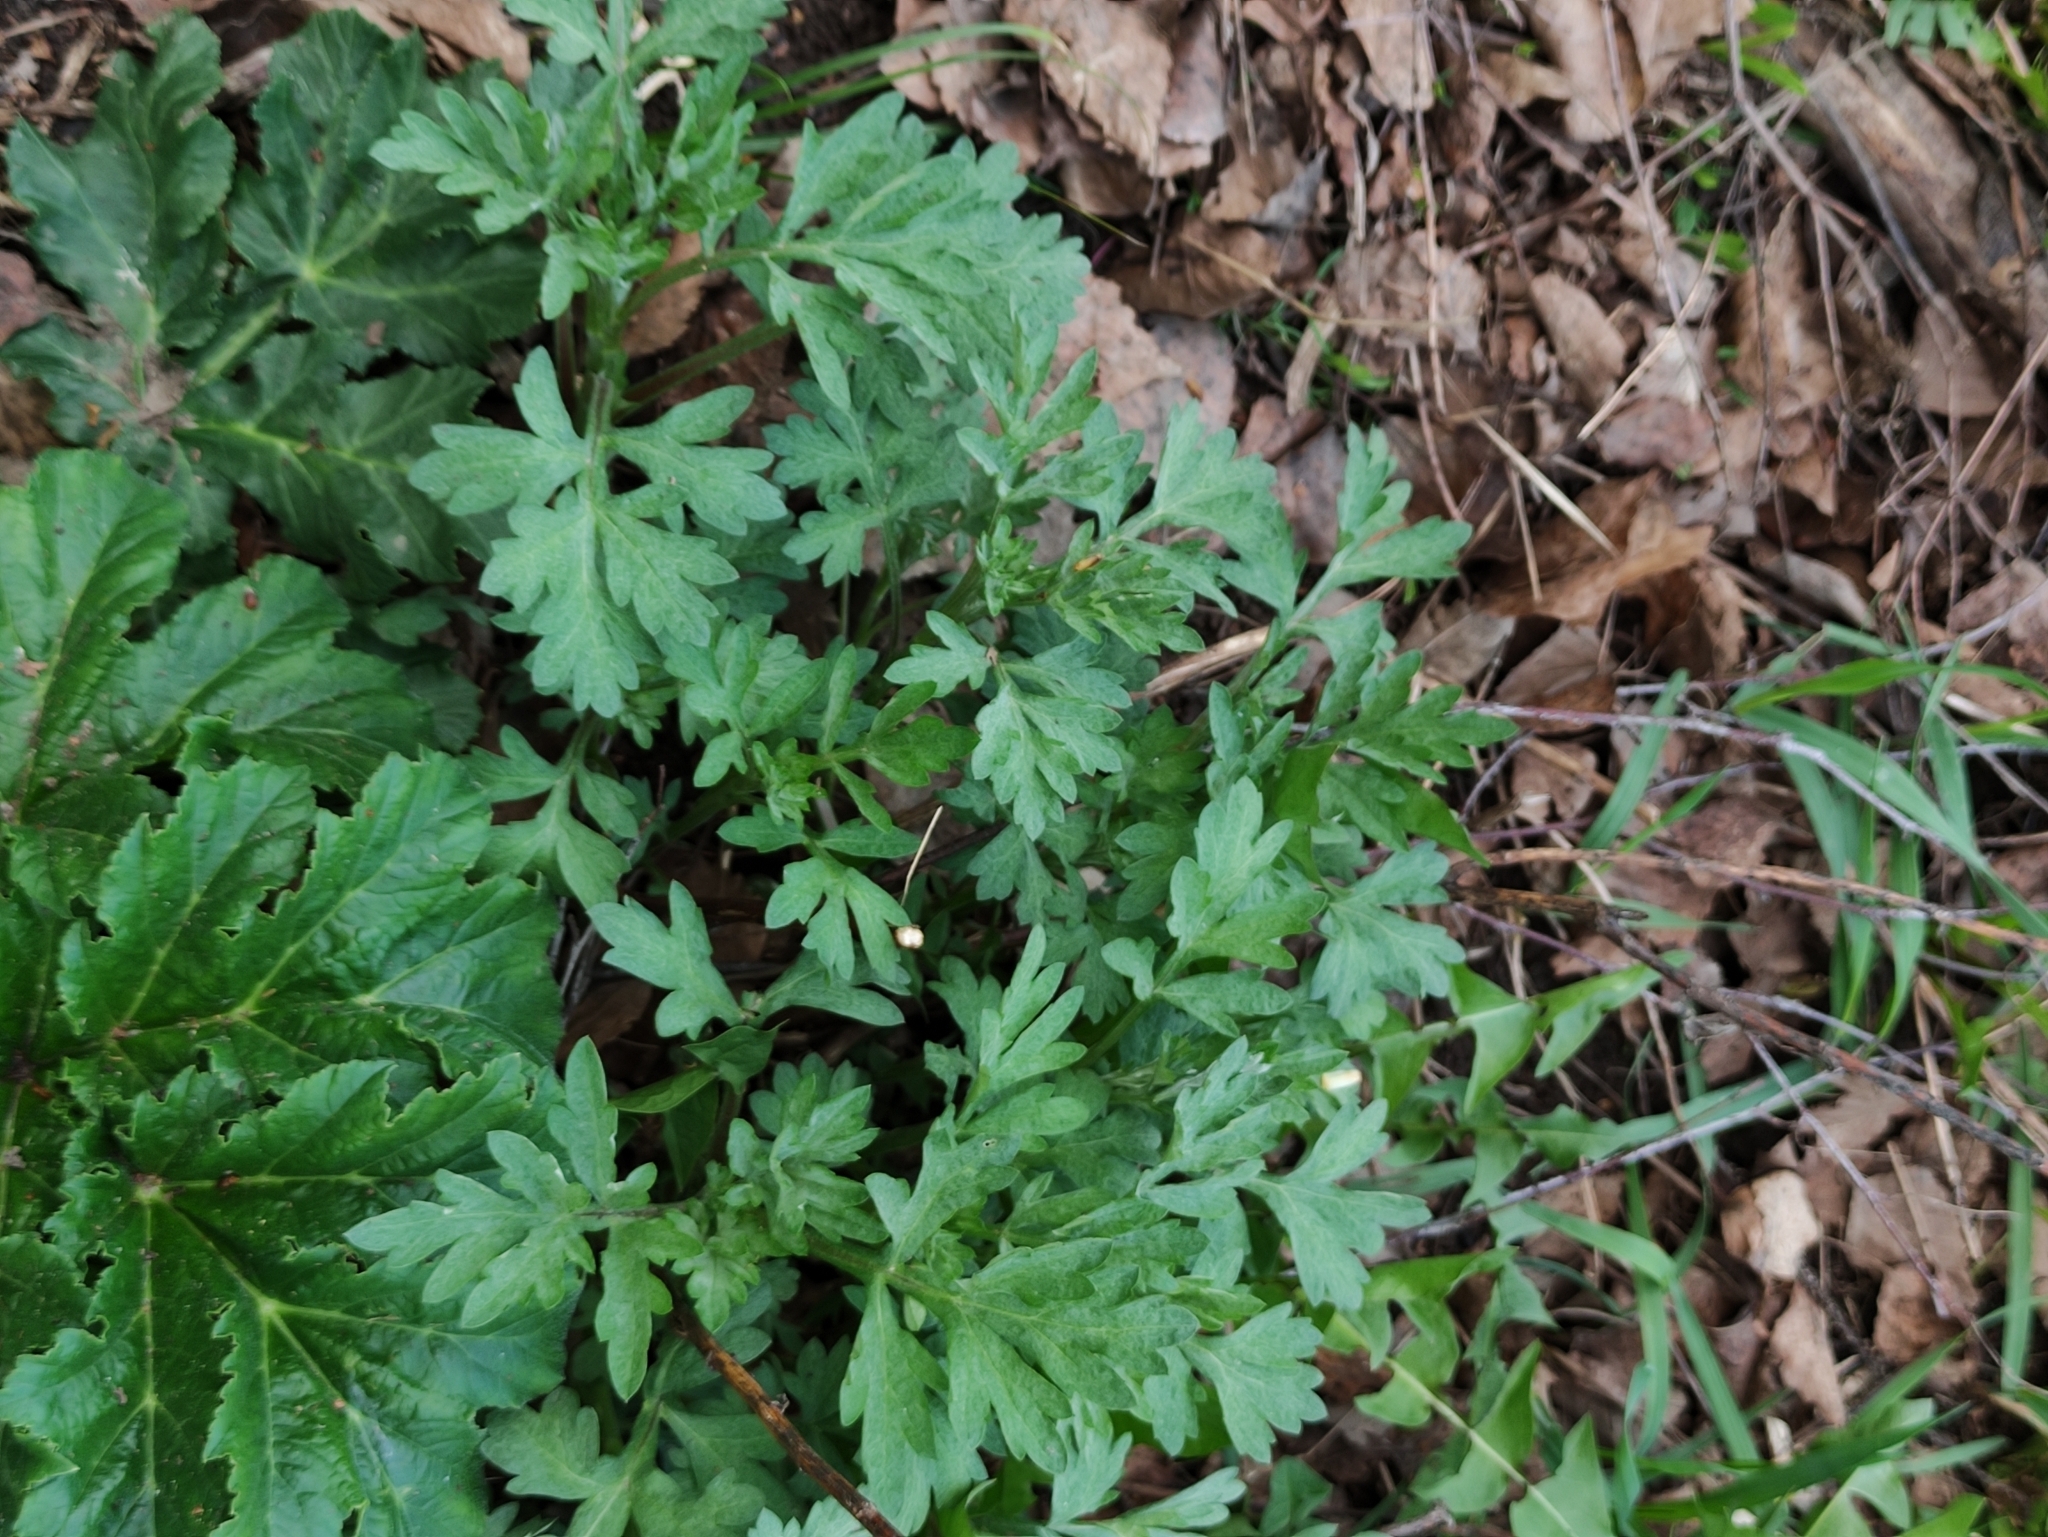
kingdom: Plantae
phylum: Tracheophyta
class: Magnoliopsida
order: Asterales
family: Asteraceae
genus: Artemisia
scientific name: Artemisia vulgaris
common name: Mugwort
